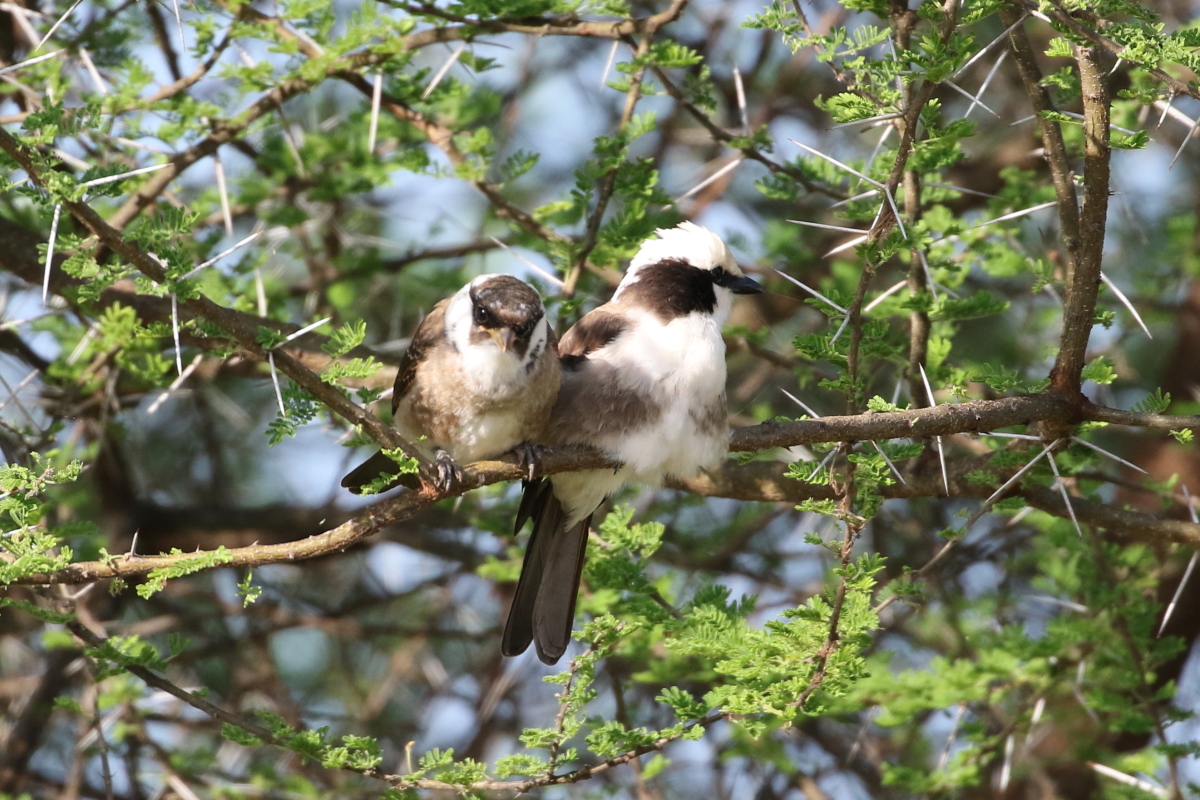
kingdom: Animalia
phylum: Chordata
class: Aves
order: Passeriformes
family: Laniidae
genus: Eurocephalus
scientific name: Eurocephalus ruppelli
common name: Northern white-crowned shrike
